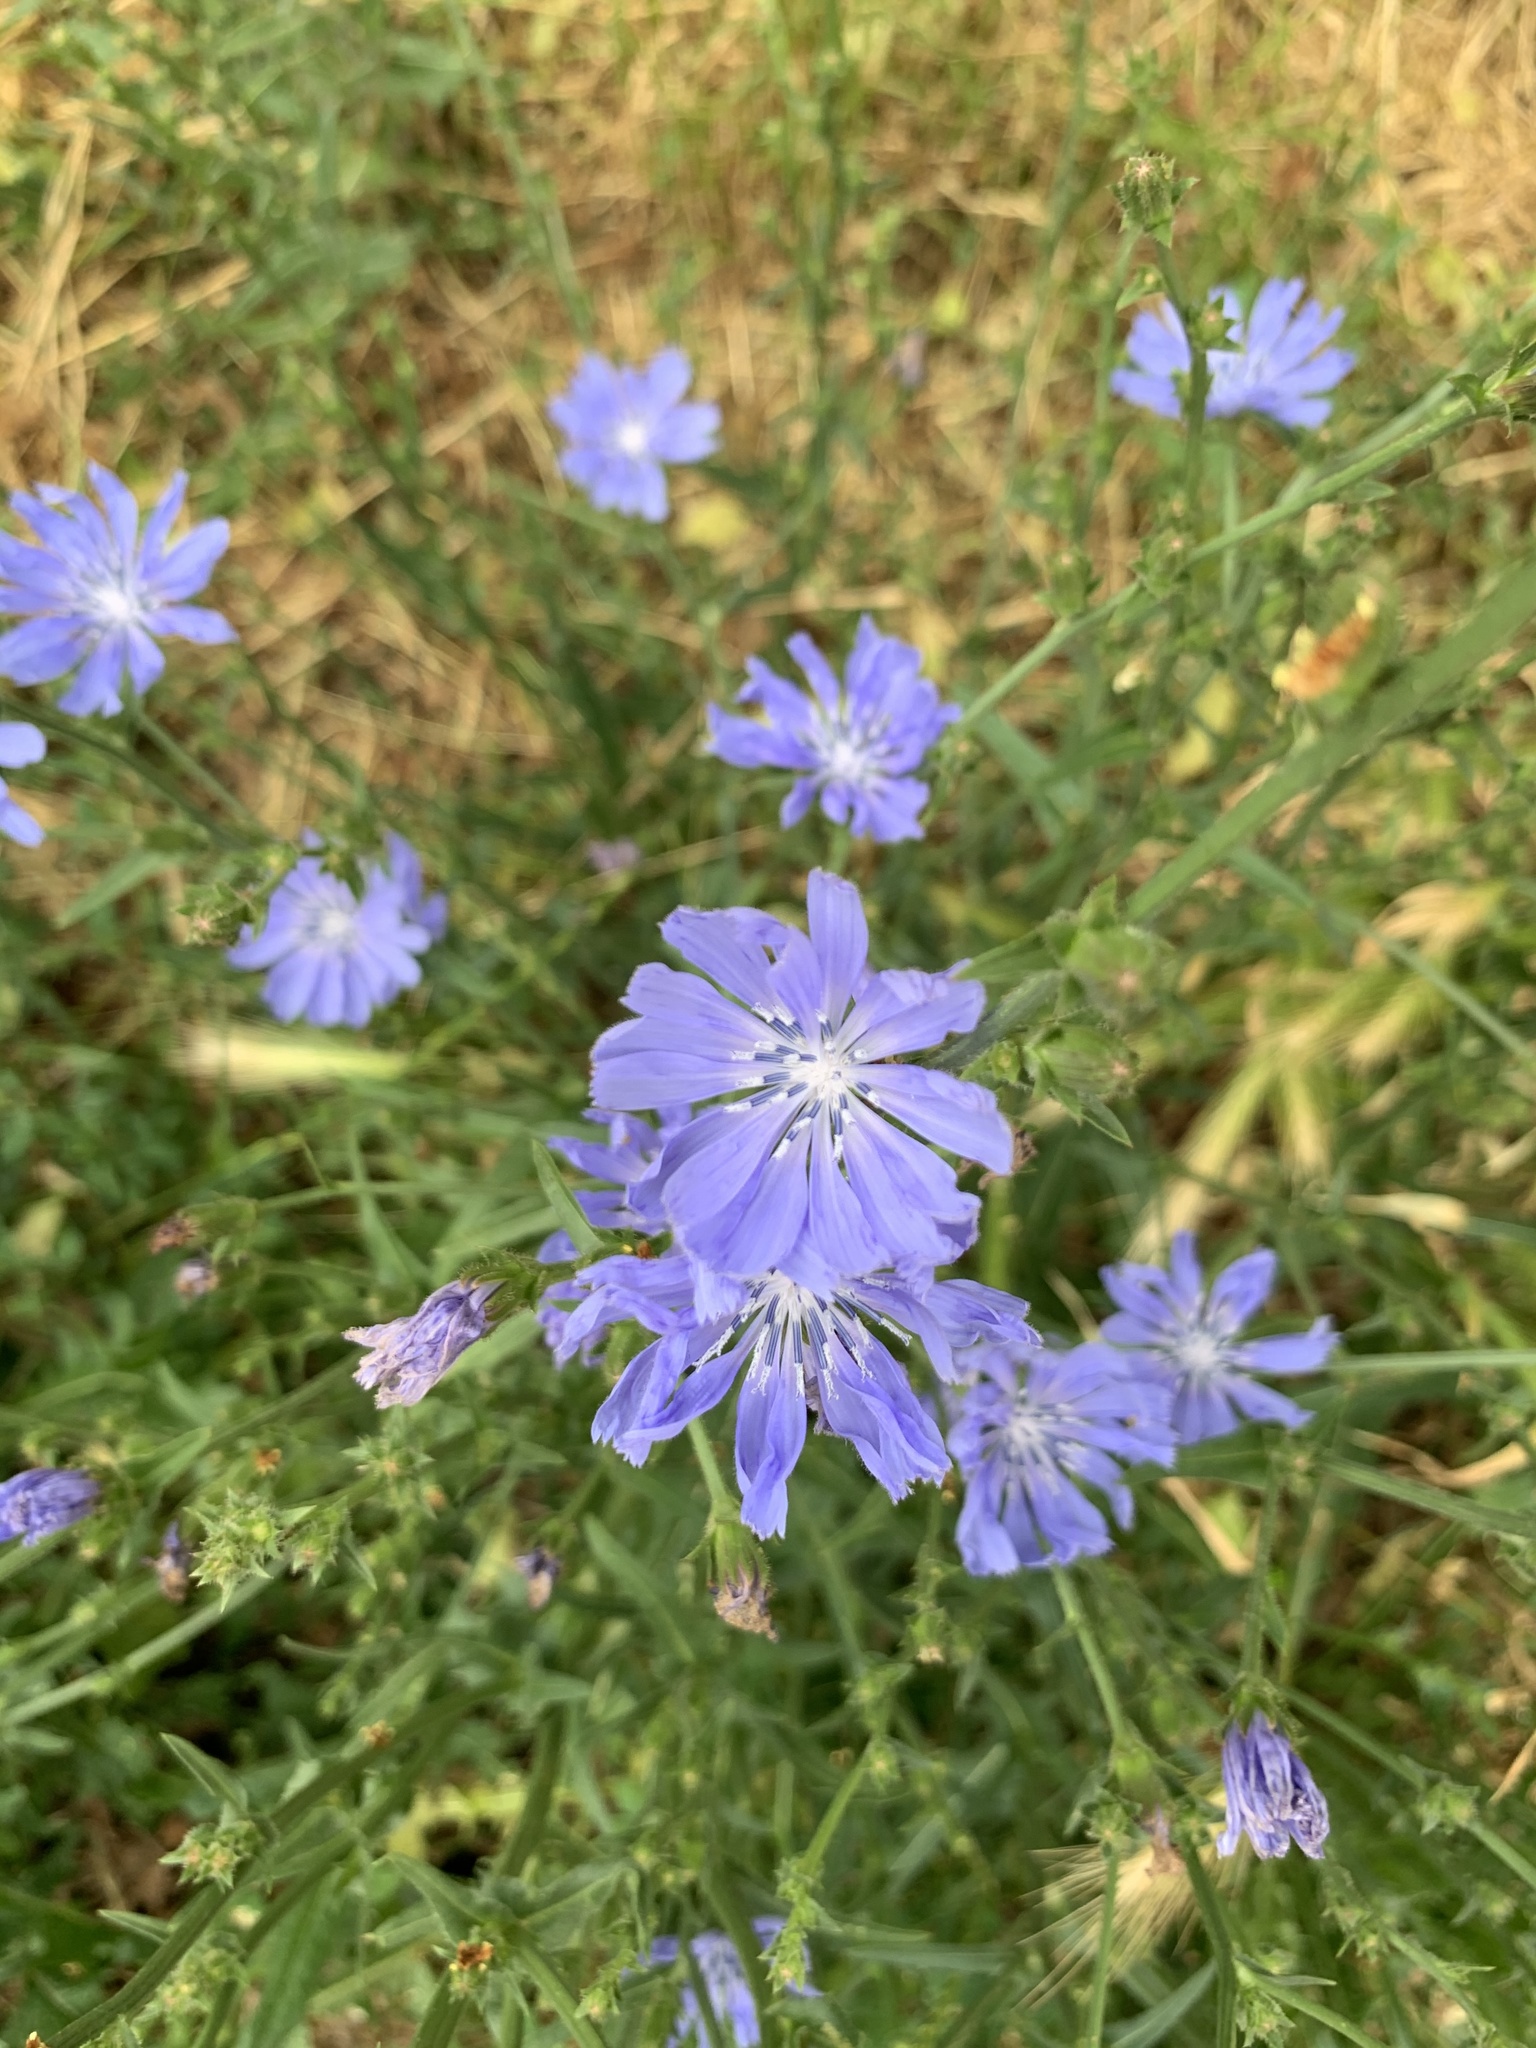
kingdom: Plantae
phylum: Tracheophyta
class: Magnoliopsida
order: Asterales
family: Asteraceae
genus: Cichorium
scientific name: Cichorium intybus
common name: Chicory
